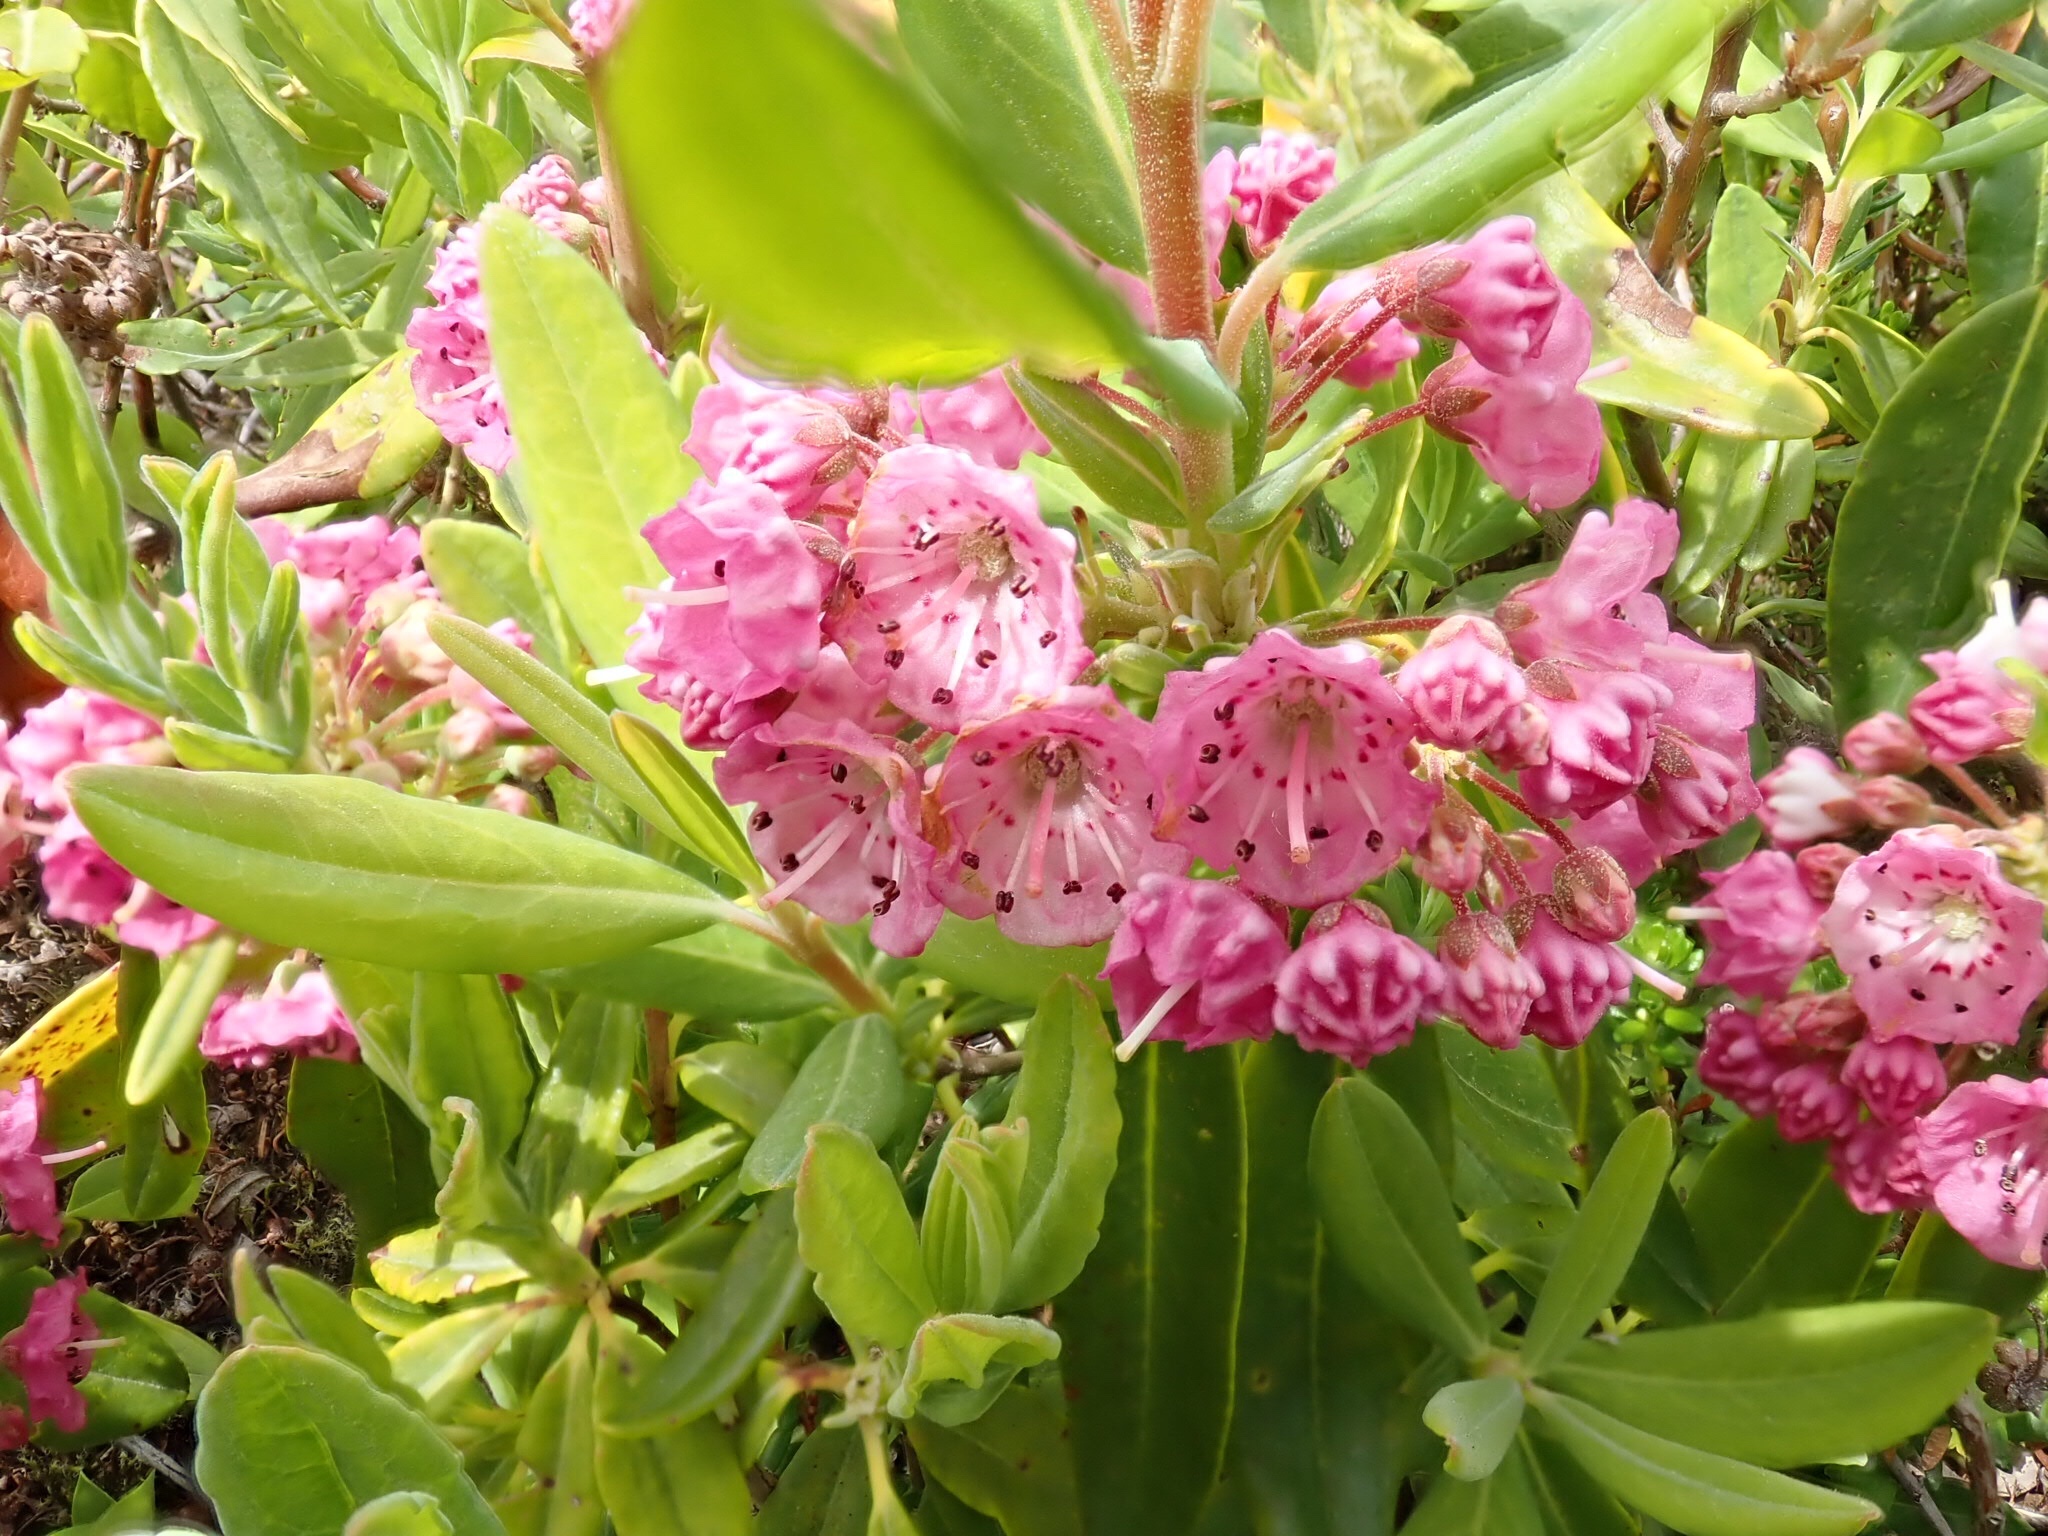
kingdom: Plantae
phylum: Tracheophyta
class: Magnoliopsida
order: Ericales
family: Ericaceae
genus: Kalmia
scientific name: Kalmia angustifolia
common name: Sheep-laurel
